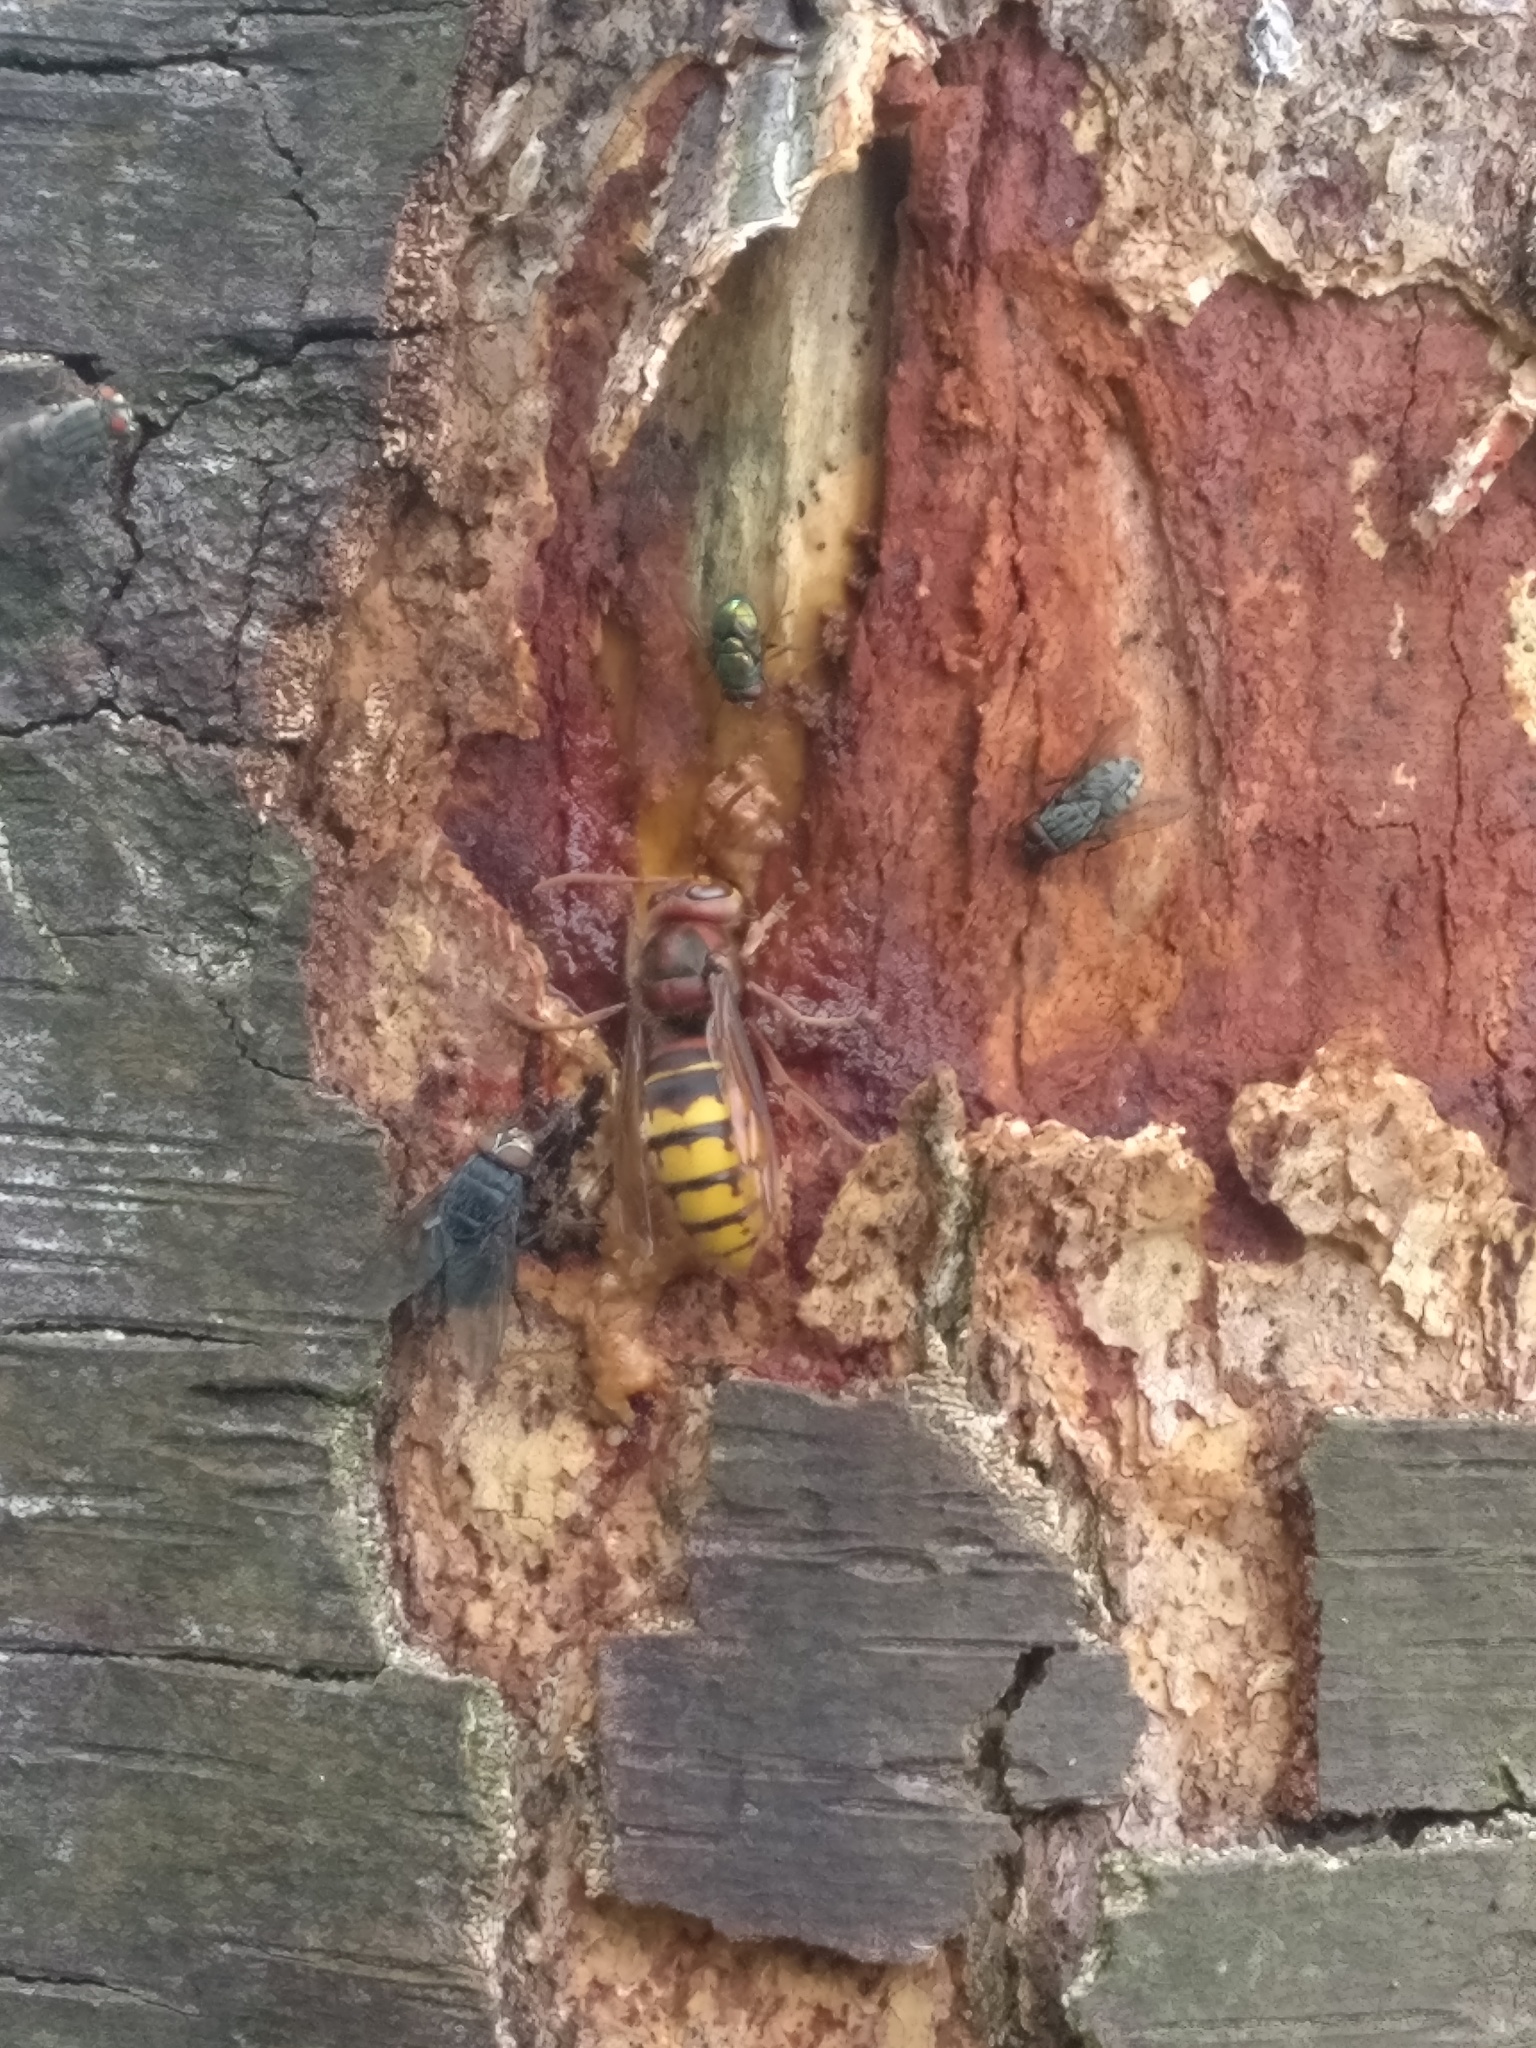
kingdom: Animalia
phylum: Arthropoda
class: Insecta
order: Hymenoptera
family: Vespidae
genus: Vespa
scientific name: Vespa crabro
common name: Hornet
